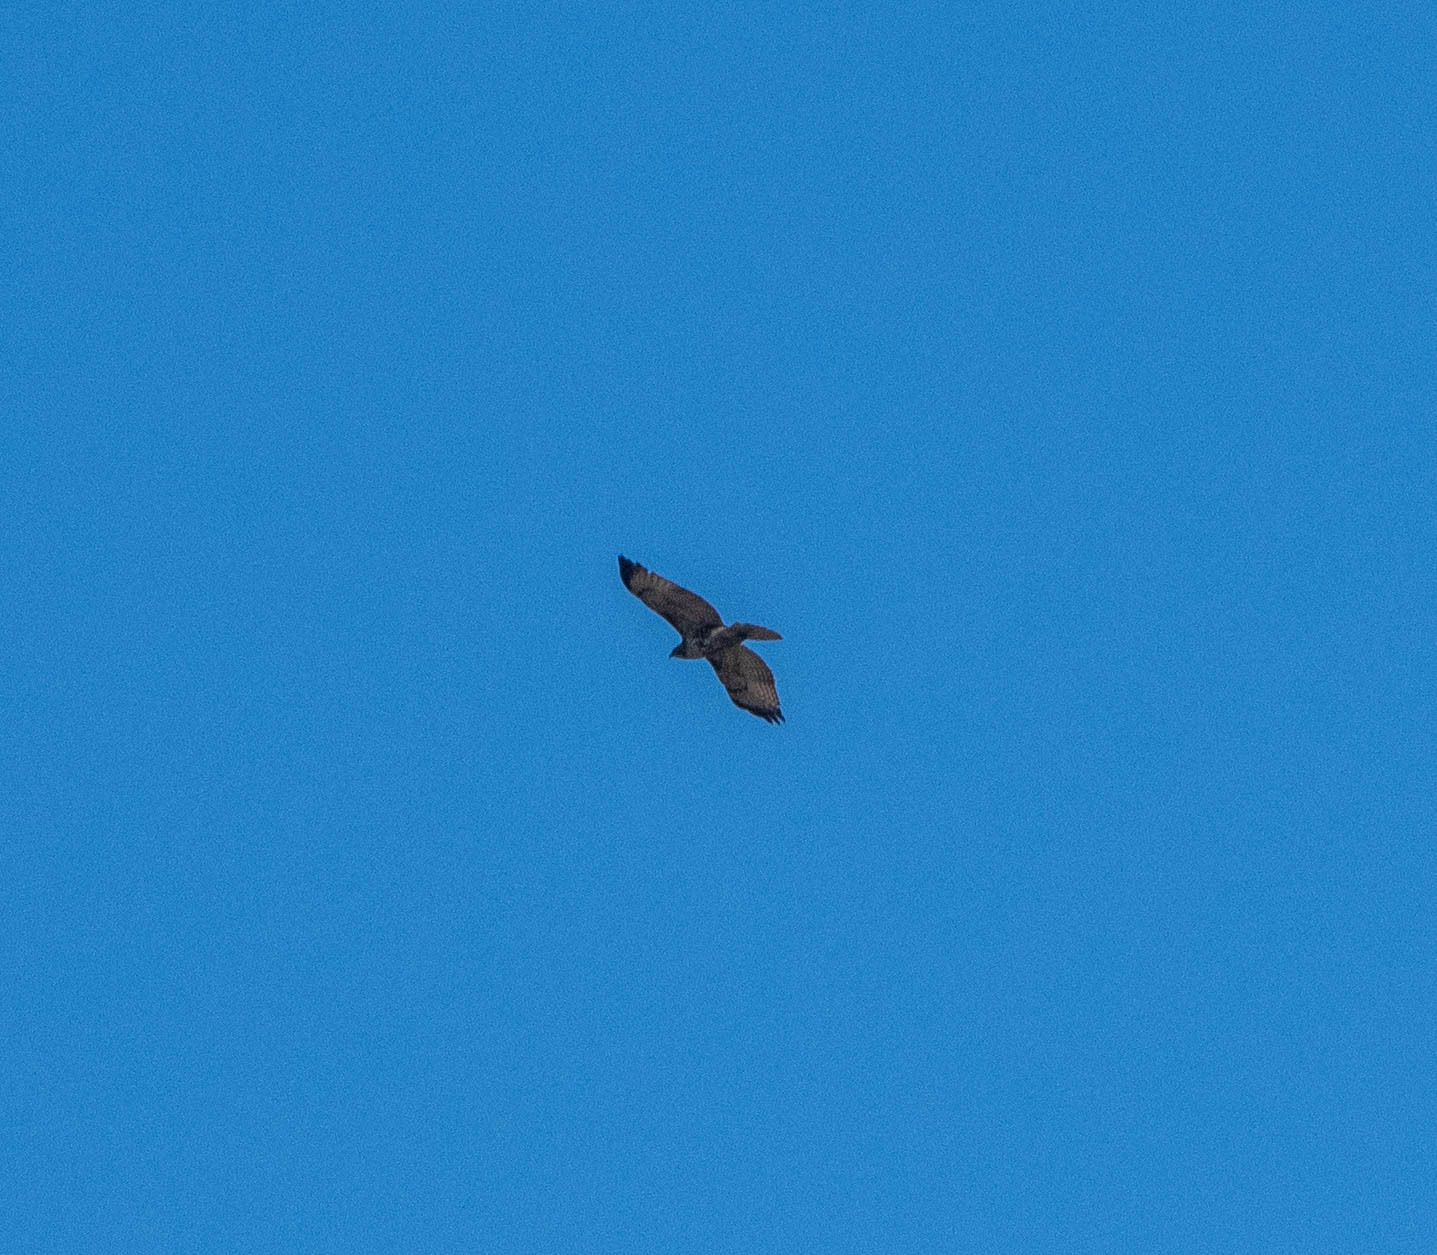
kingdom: Animalia
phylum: Chordata
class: Aves
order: Accipitriformes
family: Accipitridae
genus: Buteo
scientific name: Buteo jamaicensis
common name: Red-tailed hawk
